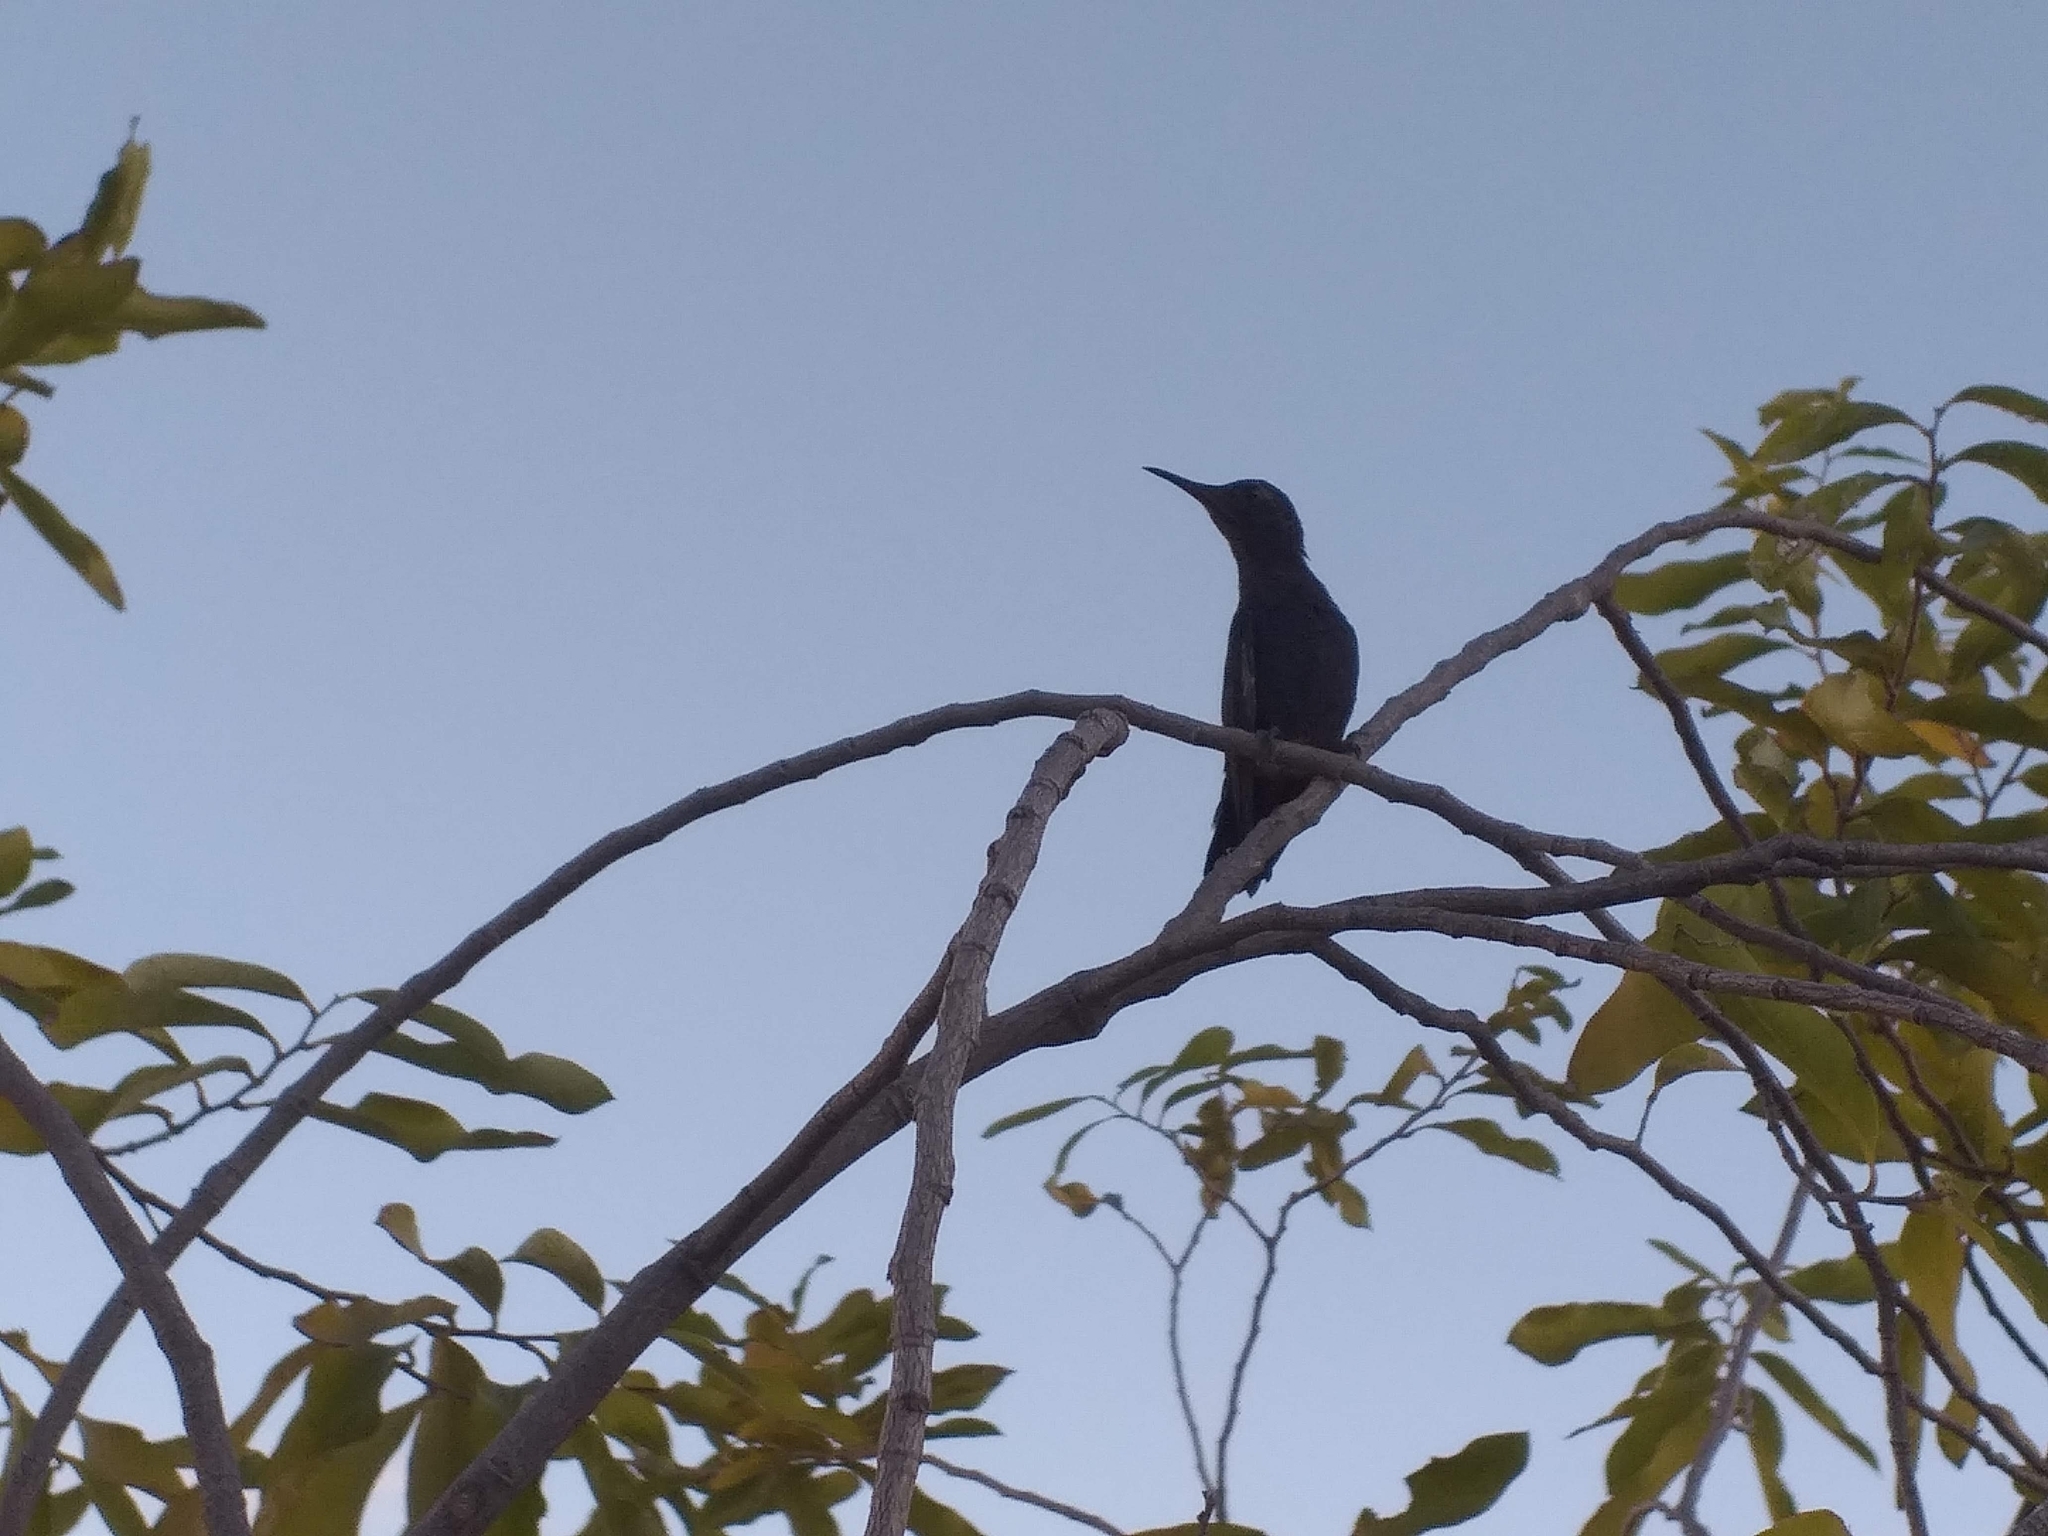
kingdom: Animalia
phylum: Chordata
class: Aves
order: Apodiformes
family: Trochilidae
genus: Eupetomena
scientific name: Eupetomena macroura
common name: Swallow-tailed hummingbird
